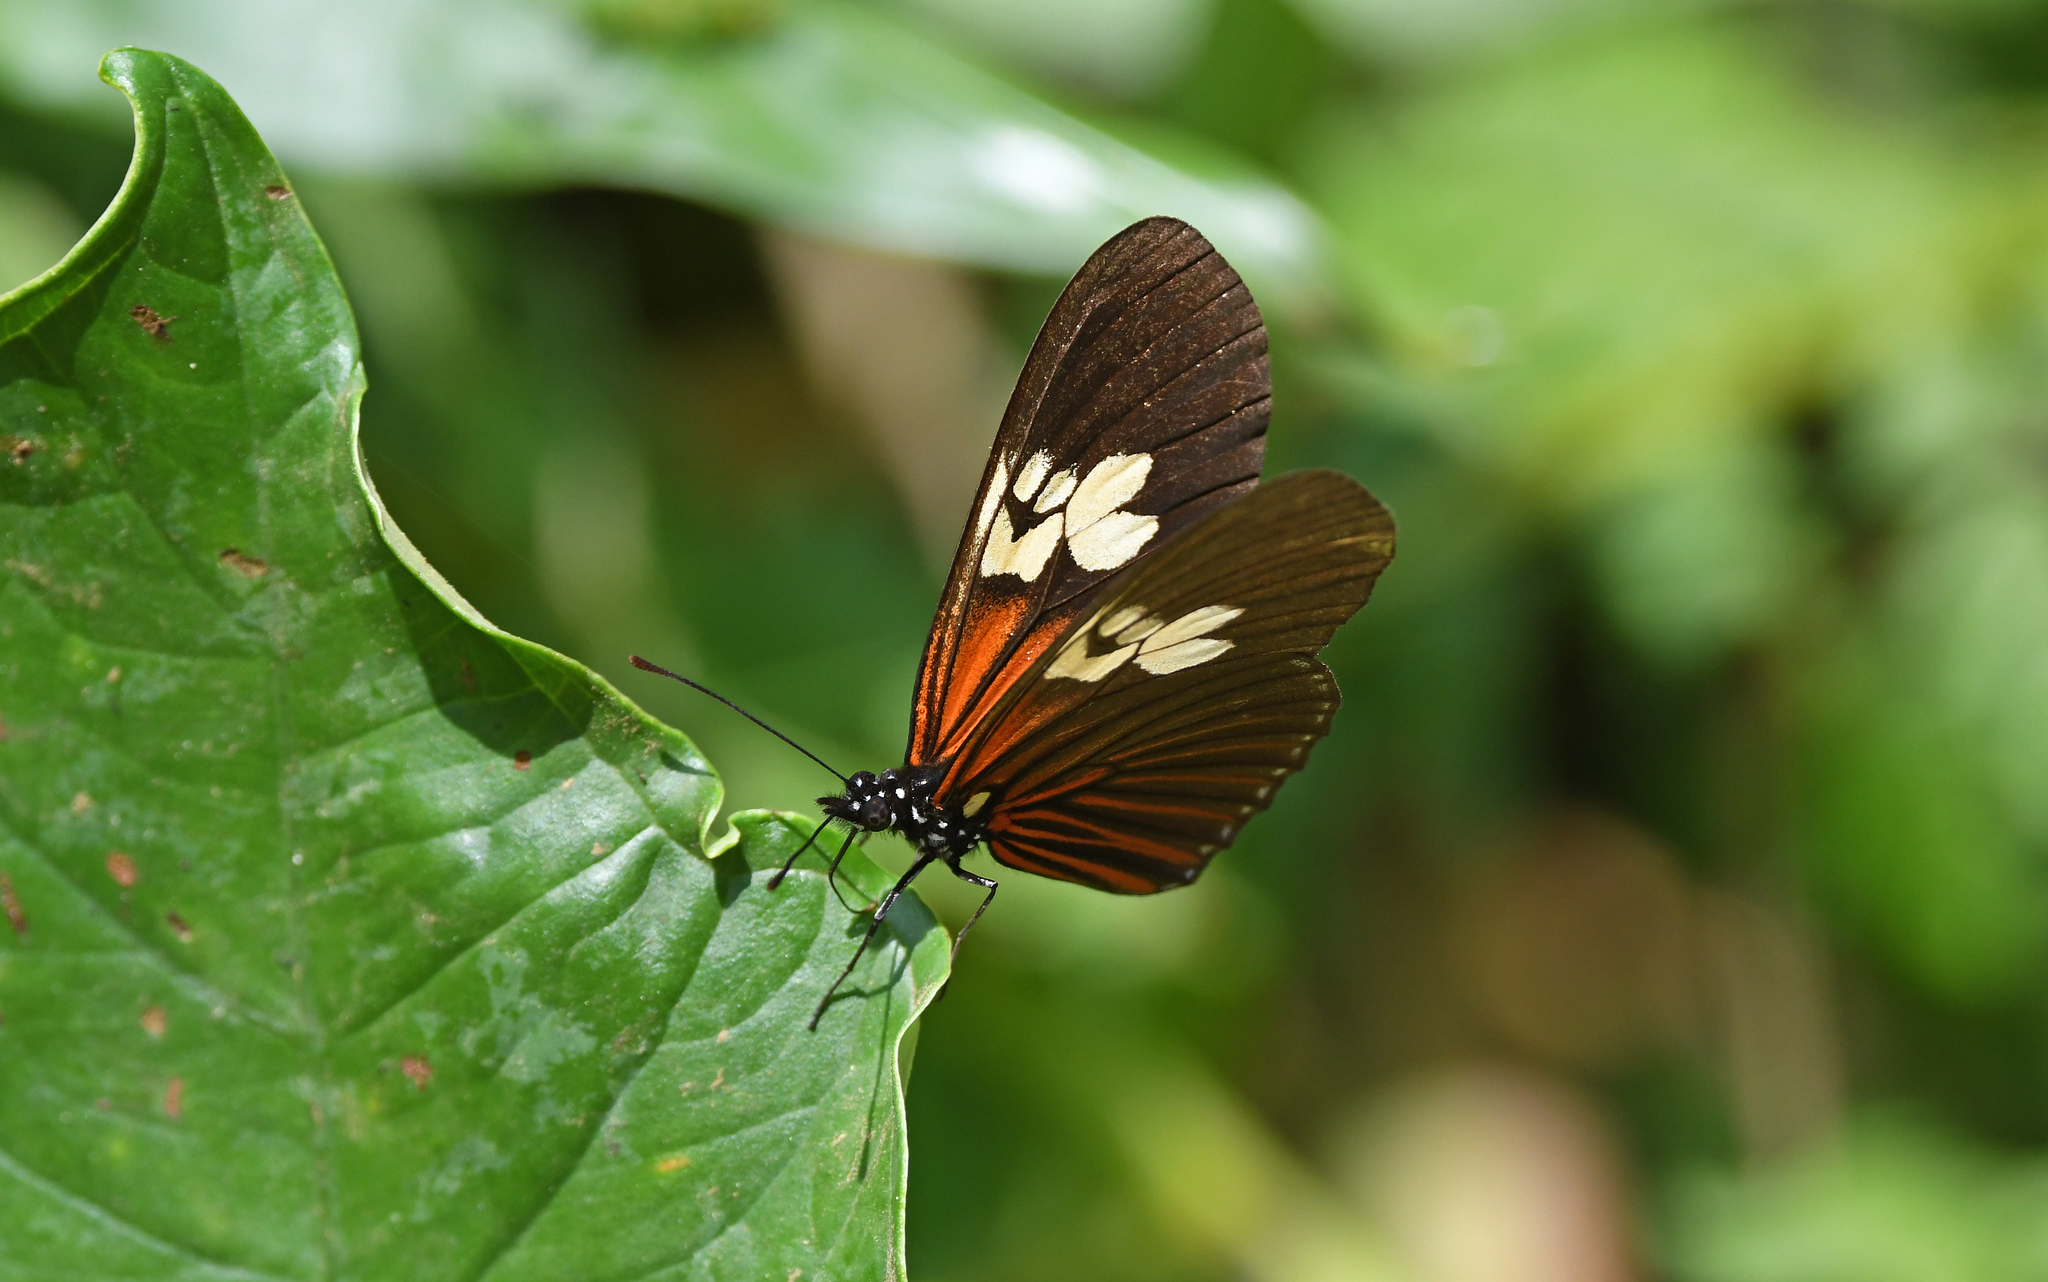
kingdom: Animalia
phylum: Arthropoda
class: Insecta
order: Lepidoptera
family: Nymphalidae
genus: Eueides
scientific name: Eueides heliconioides
